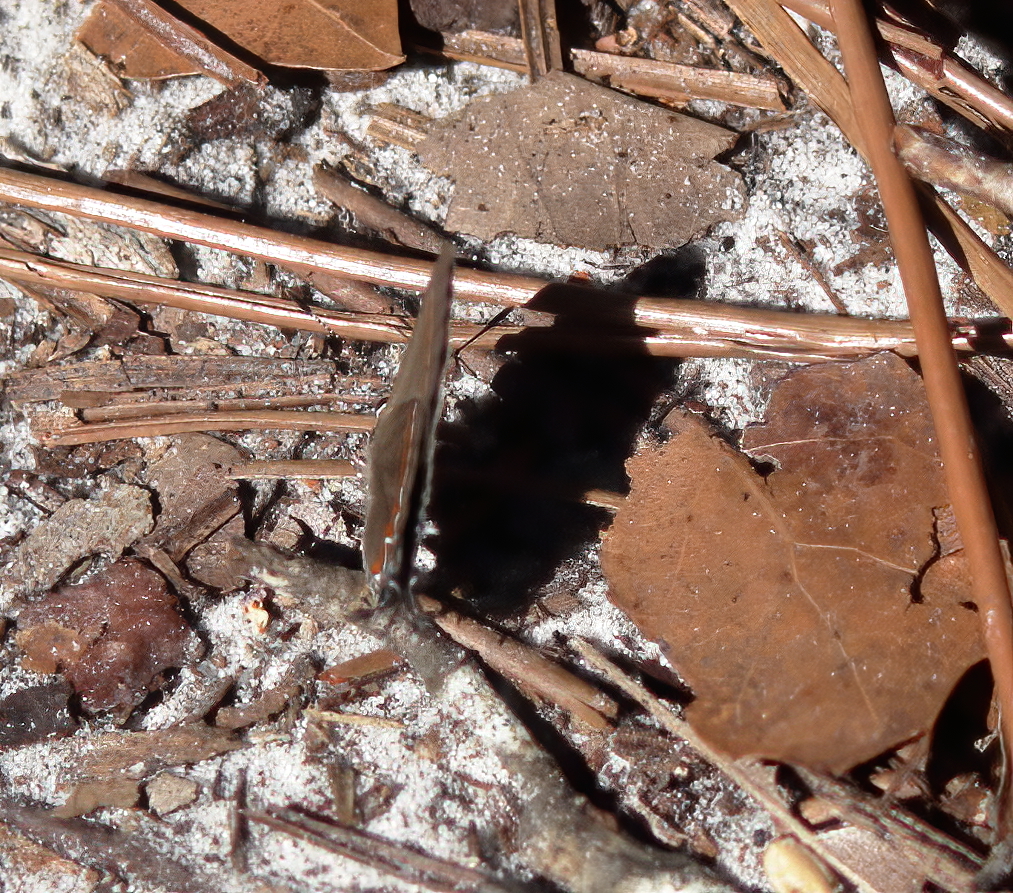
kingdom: Animalia
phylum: Arthropoda
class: Insecta
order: Lepidoptera
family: Lycaenidae
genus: Calycopis
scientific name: Calycopis cecrops
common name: Red-banded hairstreak
